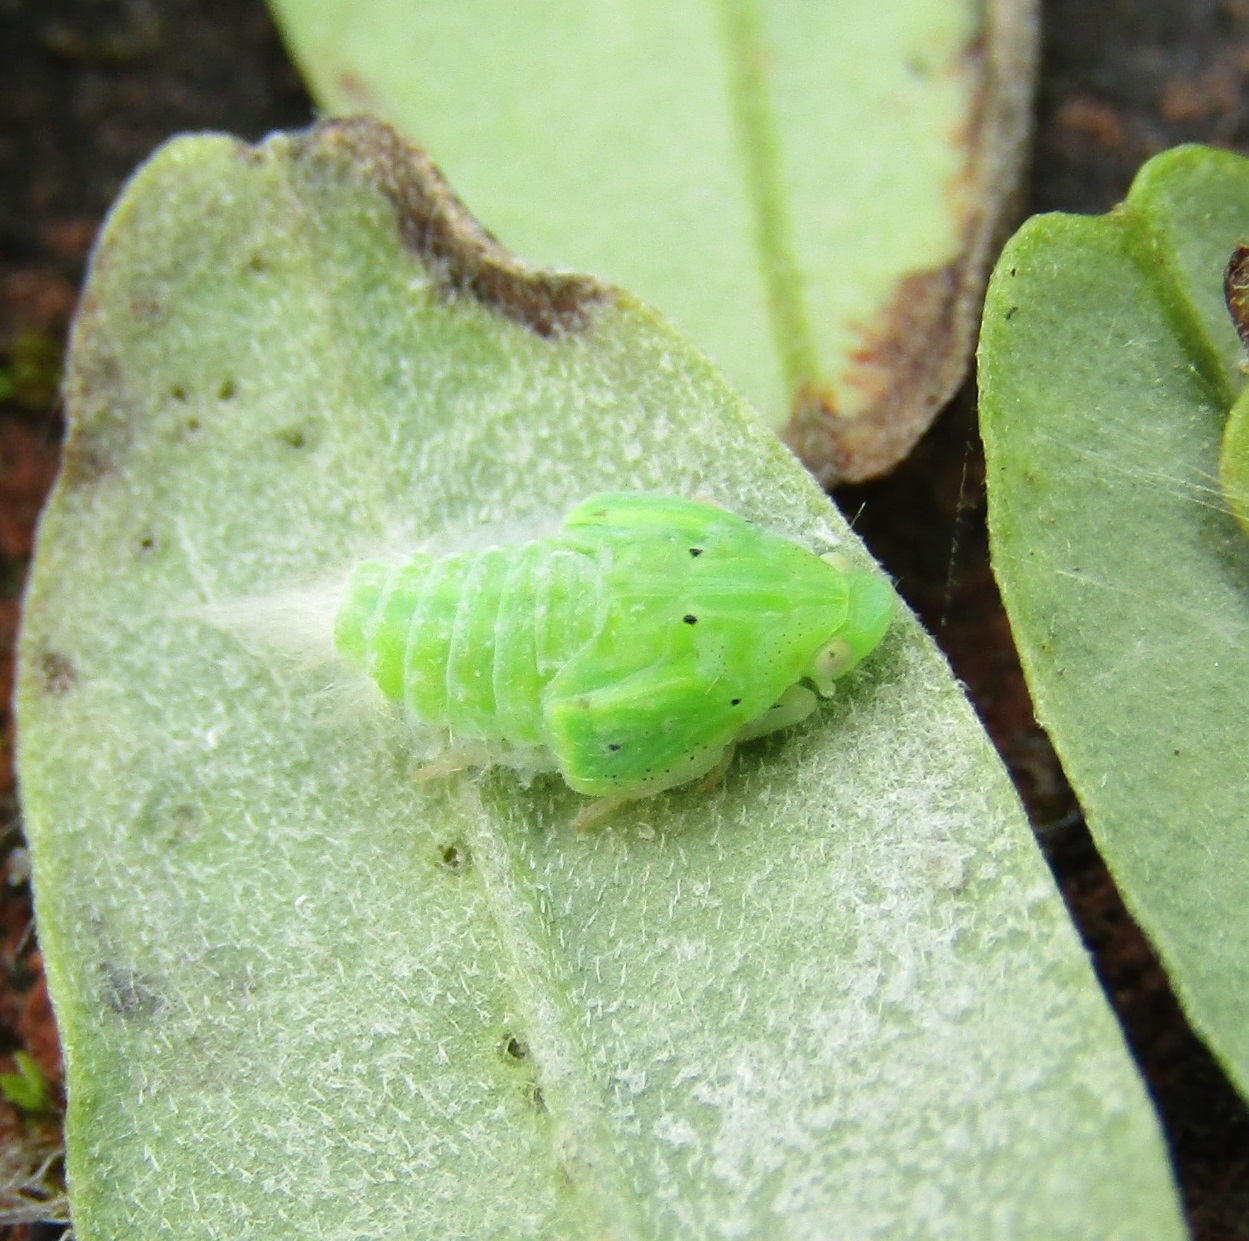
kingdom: Animalia
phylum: Arthropoda
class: Insecta
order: Hemiptera
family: Flatidae
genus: Siphanta
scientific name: Siphanta acuta
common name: Torpedo bug
